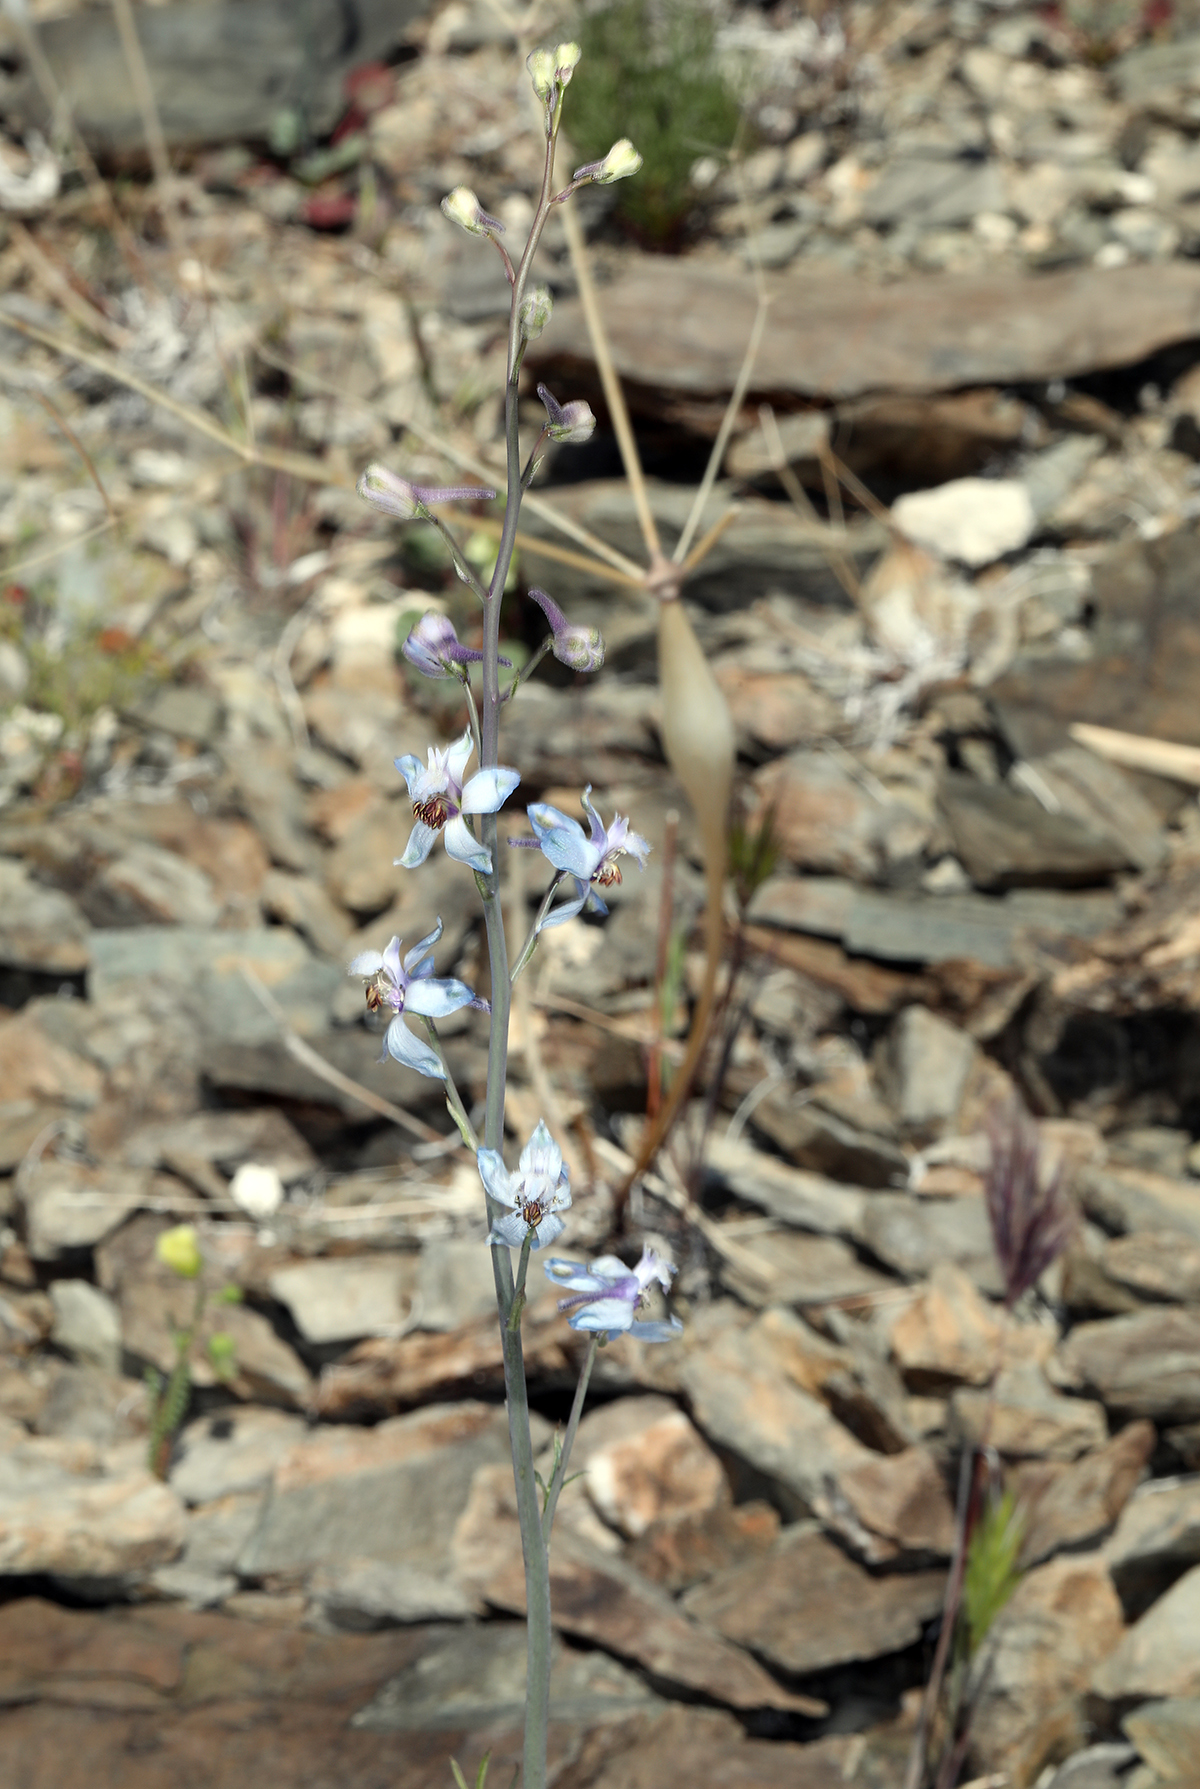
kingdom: Plantae
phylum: Tracheophyta
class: Magnoliopsida
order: Ranunculales
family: Ranunculaceae
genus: Delphinium
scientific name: Delphinium parishii
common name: Apache larkspur
